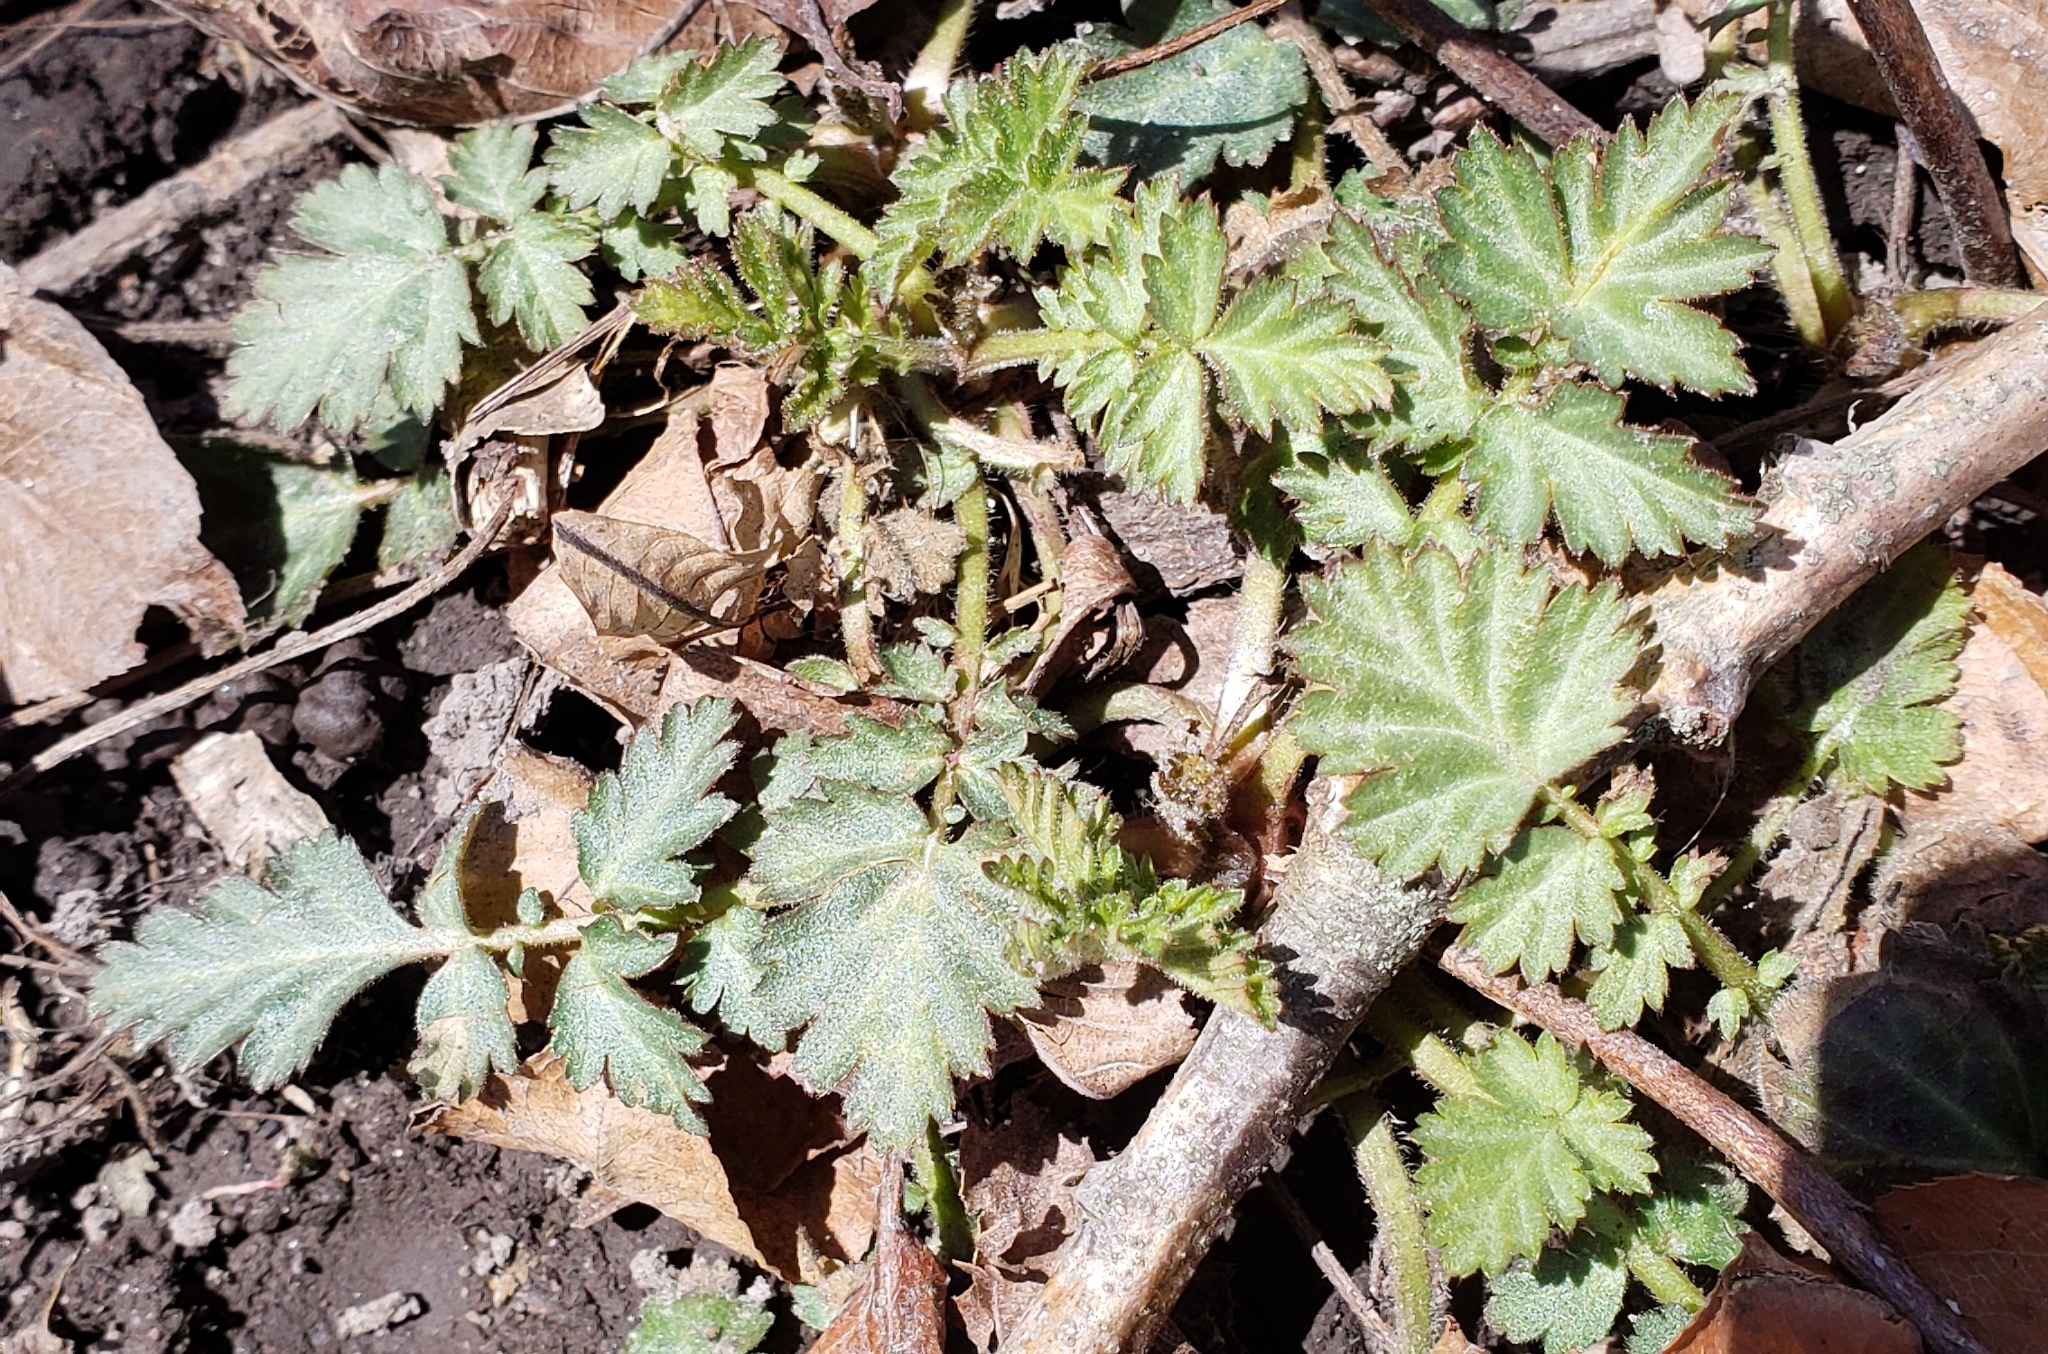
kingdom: Plantae
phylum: Tracheophyta
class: Magnoliopsida
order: Rosales
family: Rosaceae
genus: Geum
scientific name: Geum canadense
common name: White avens
